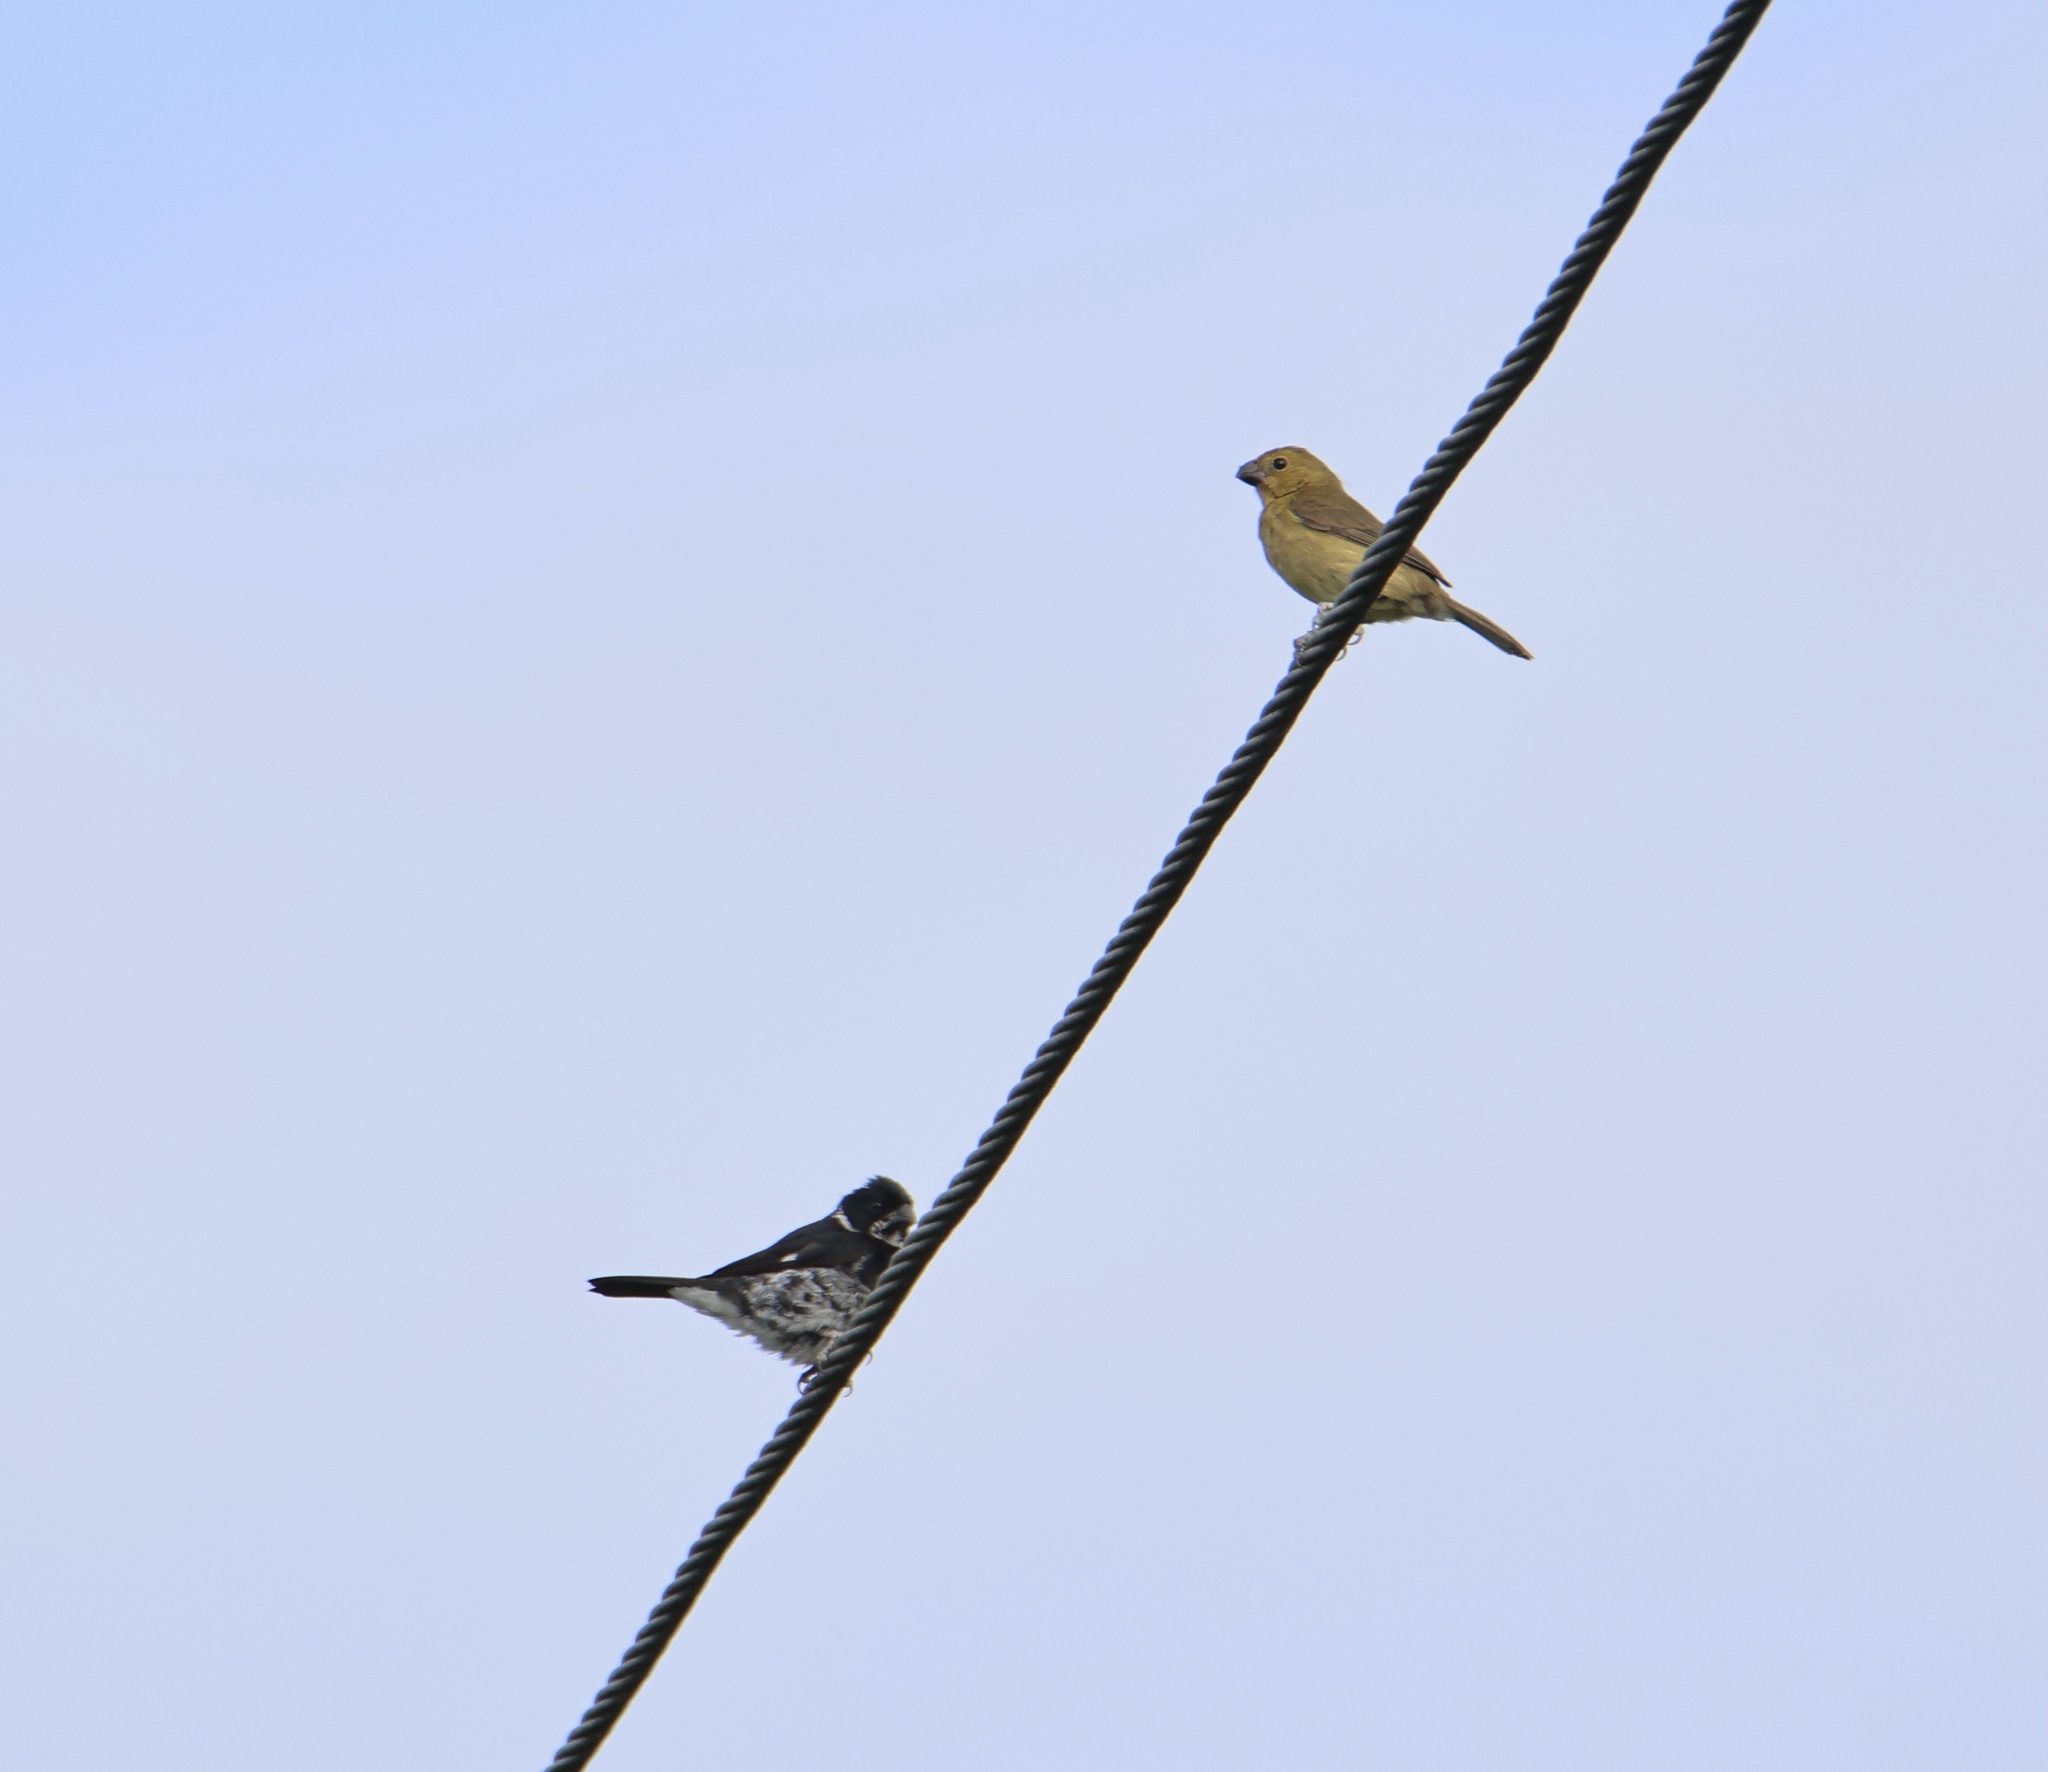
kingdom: Animalia
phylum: Chordata
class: Aves
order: Passeriformes
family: Thraupidae
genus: Sporophila
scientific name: Sporophila corvina
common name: Variable seedeater
